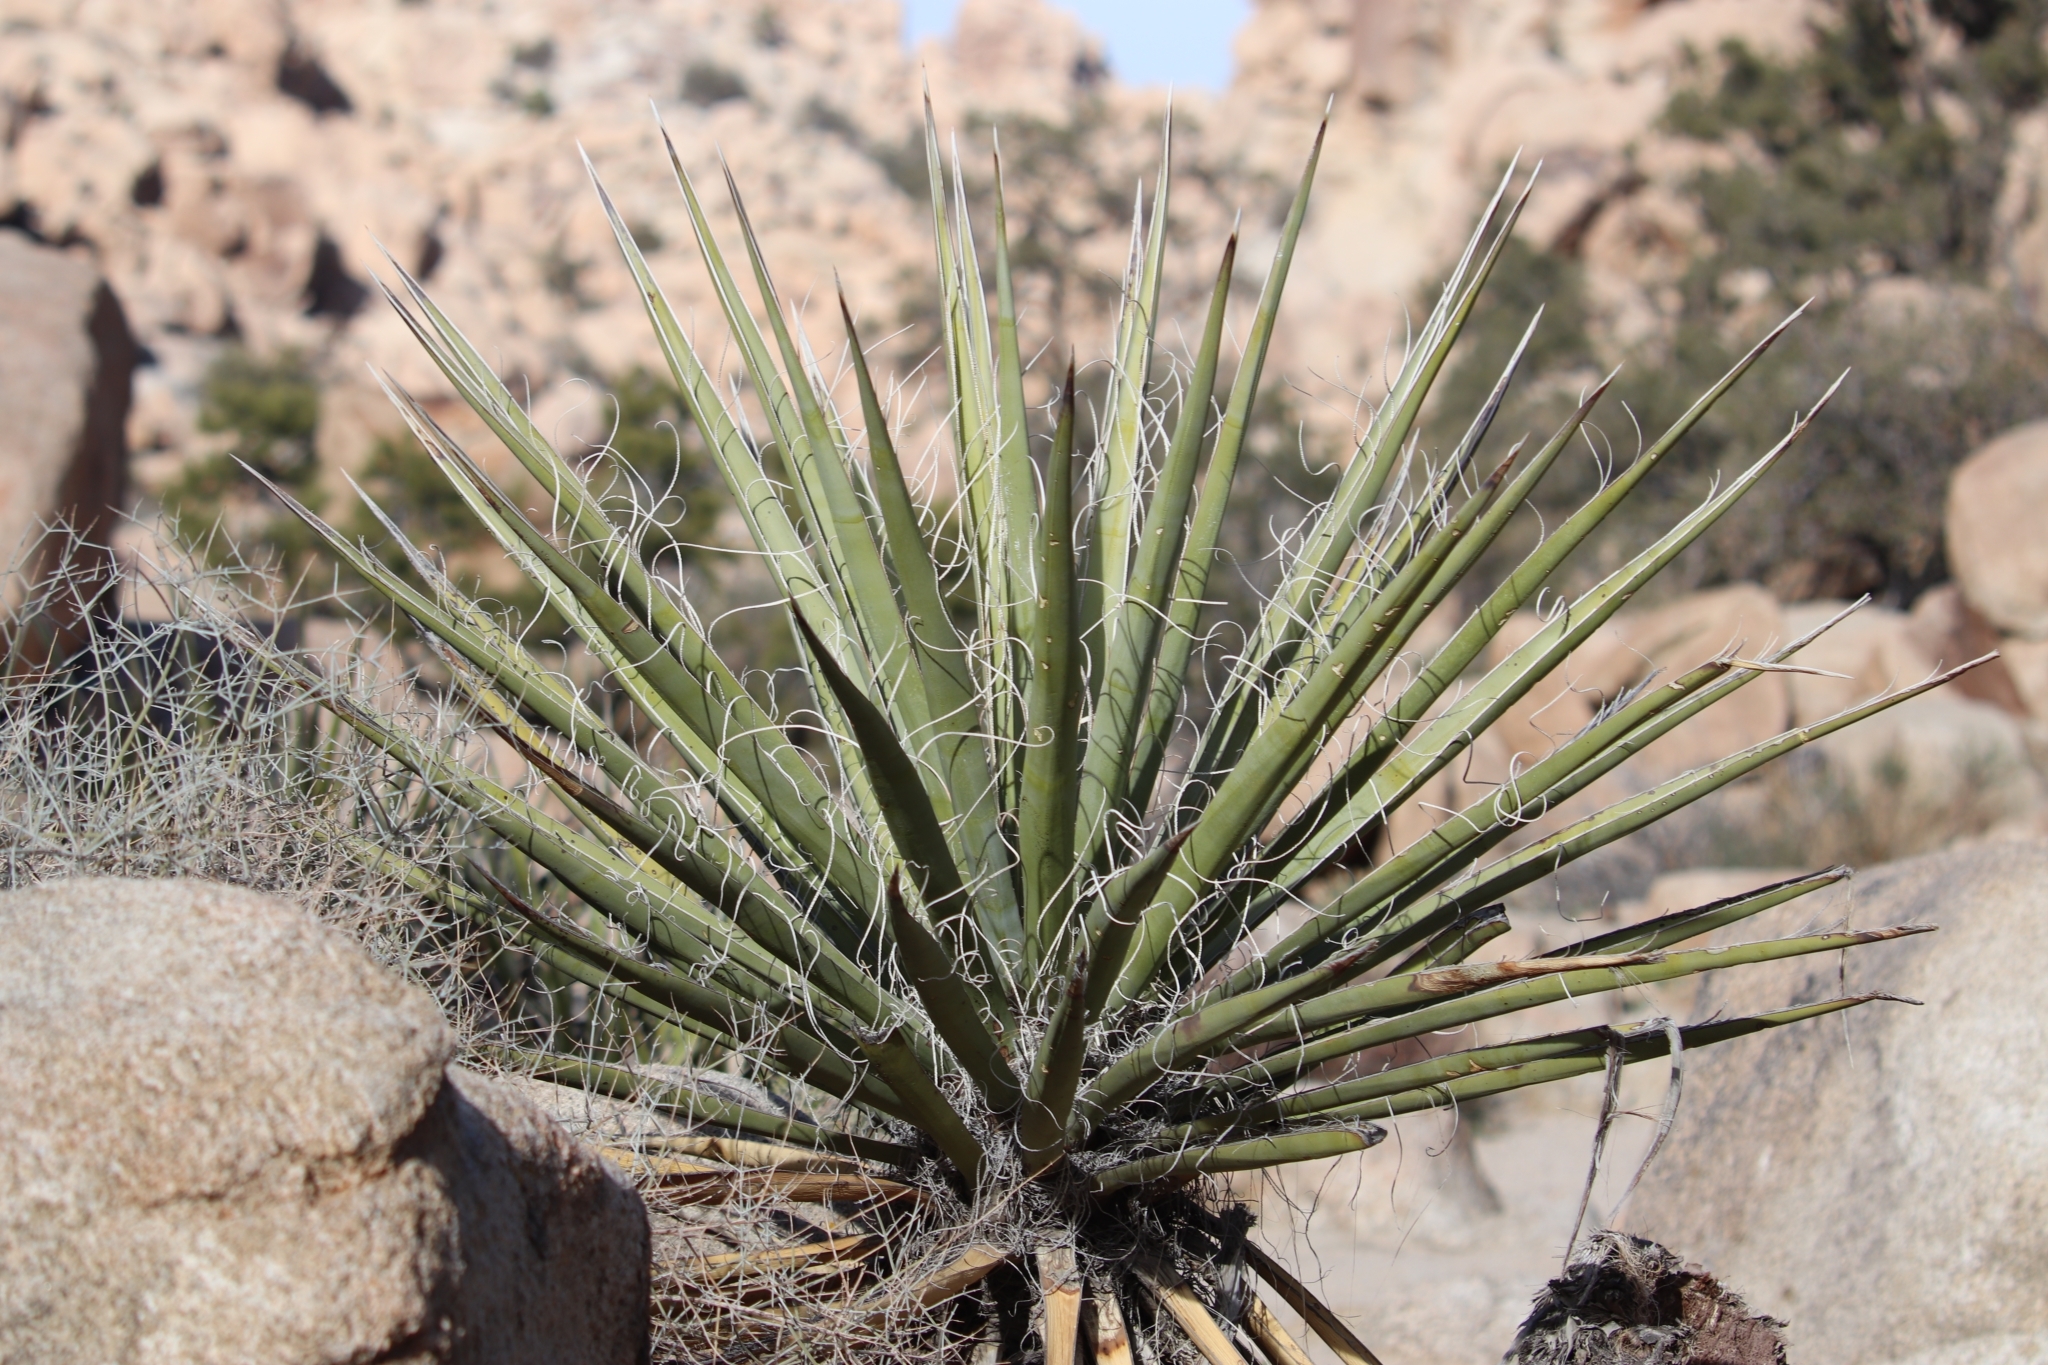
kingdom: Plantae
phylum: Tracheophyta
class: Liliopsida
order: Asparagales
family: Asparagaceae
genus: Yucca
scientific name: Yucca schidigera
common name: Mojave yucca
